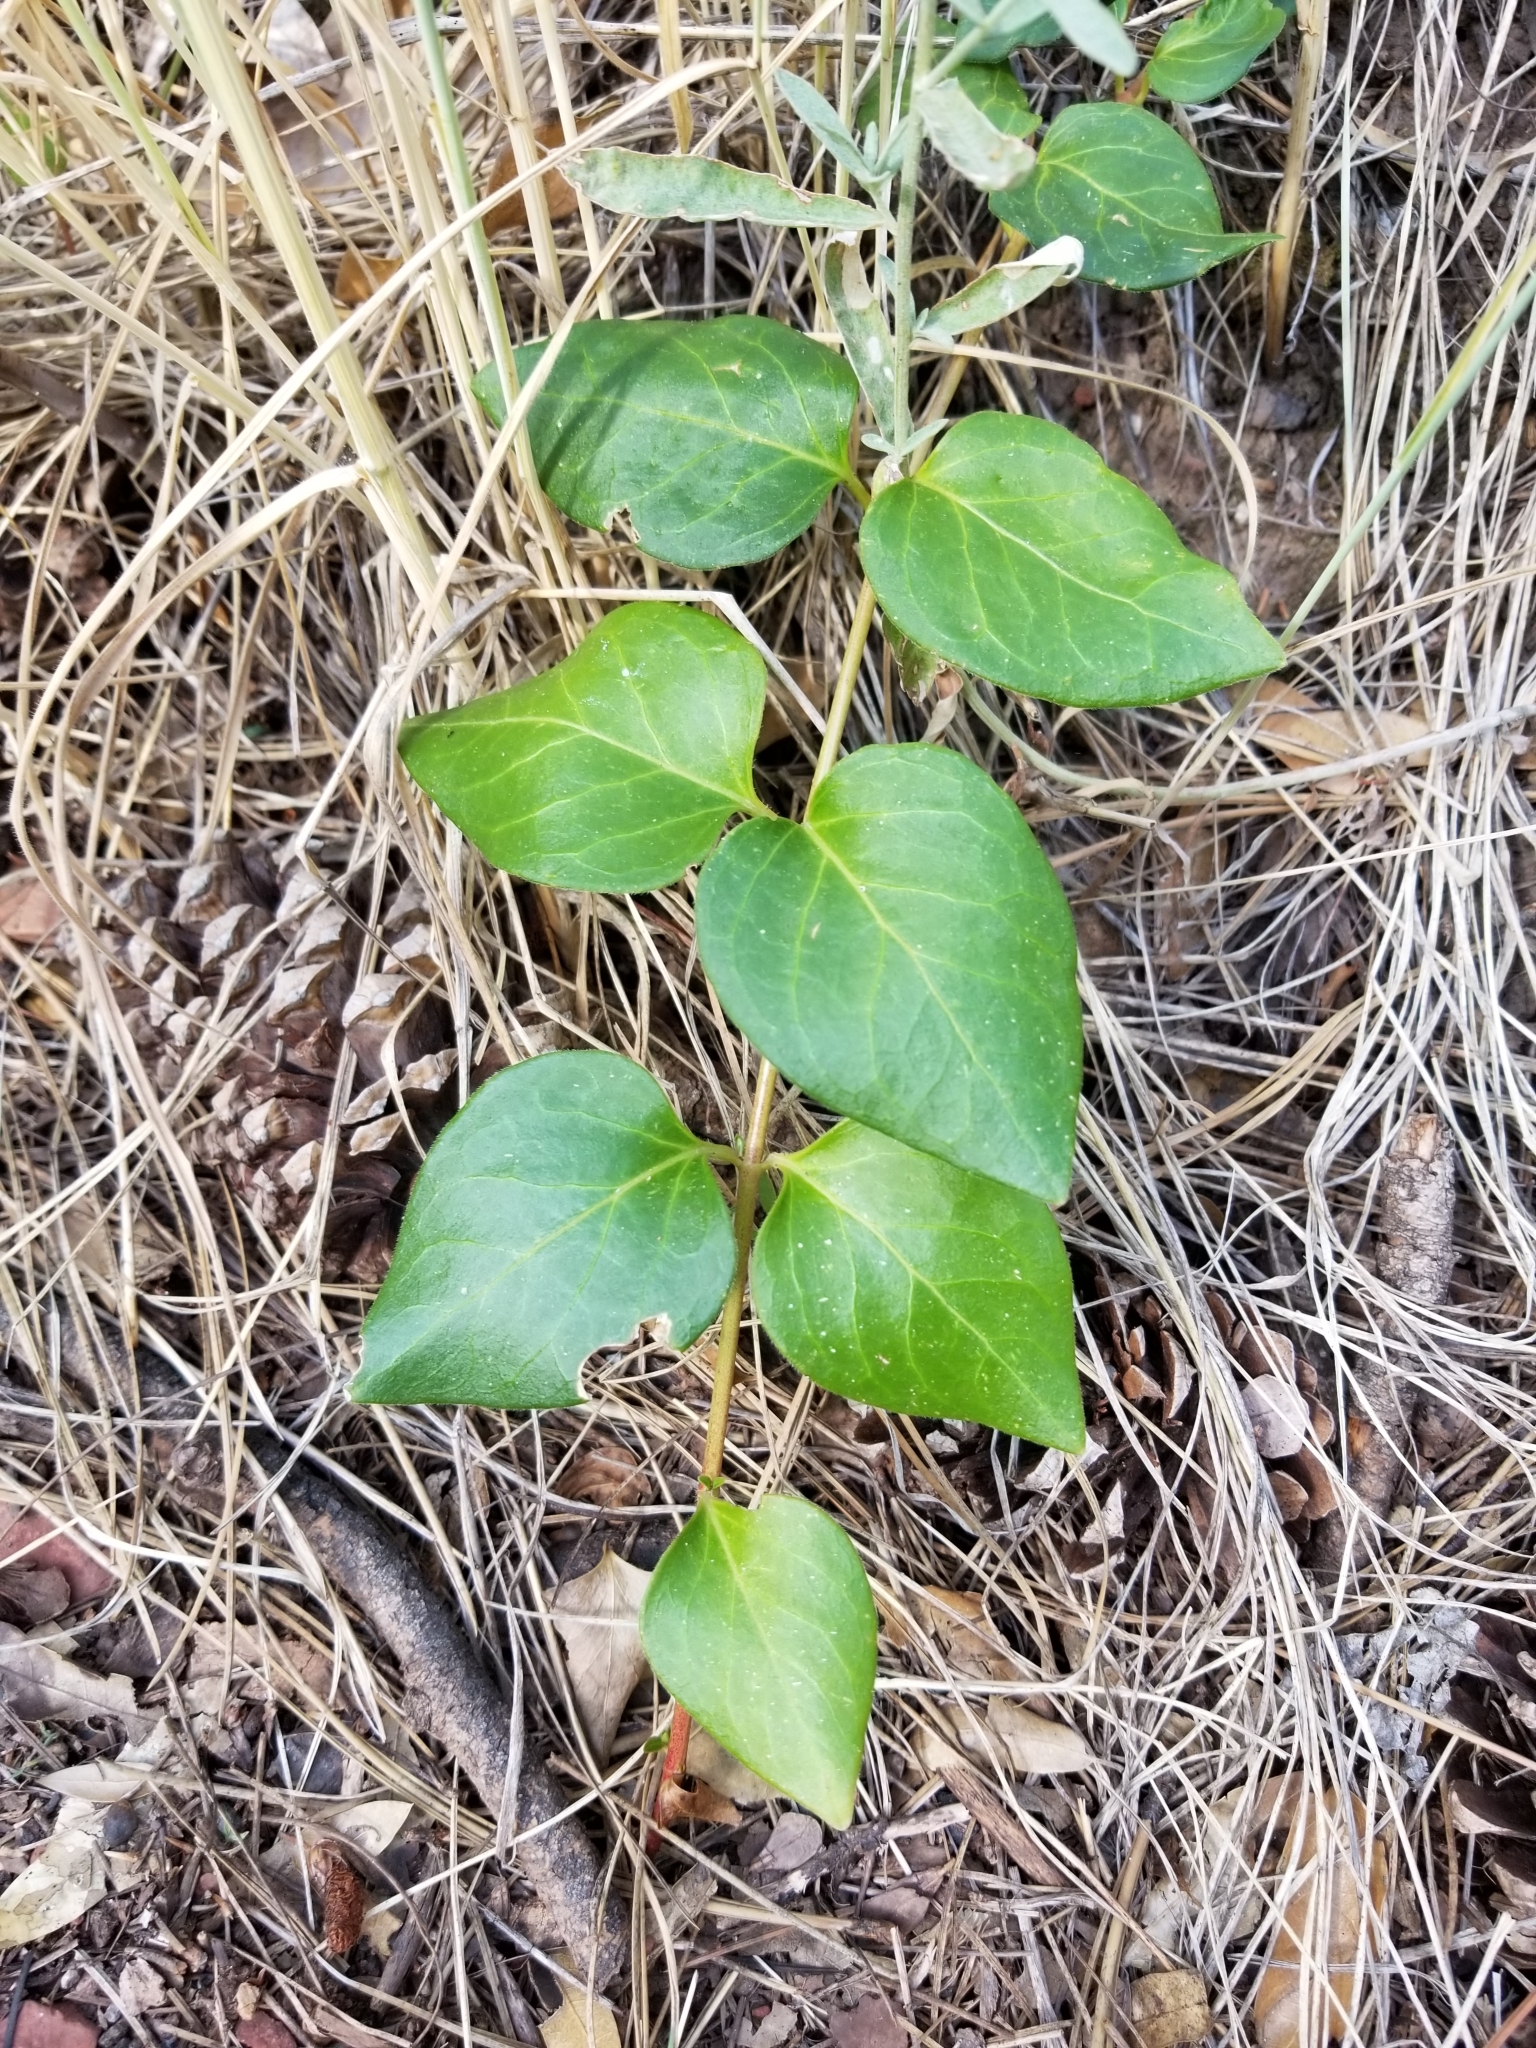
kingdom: Plantae
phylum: Tracheophyta
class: Magnoliopsida
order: Gentianales
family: Apocynaceae
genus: Vinca
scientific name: Vinca major
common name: Greater periwinkle
